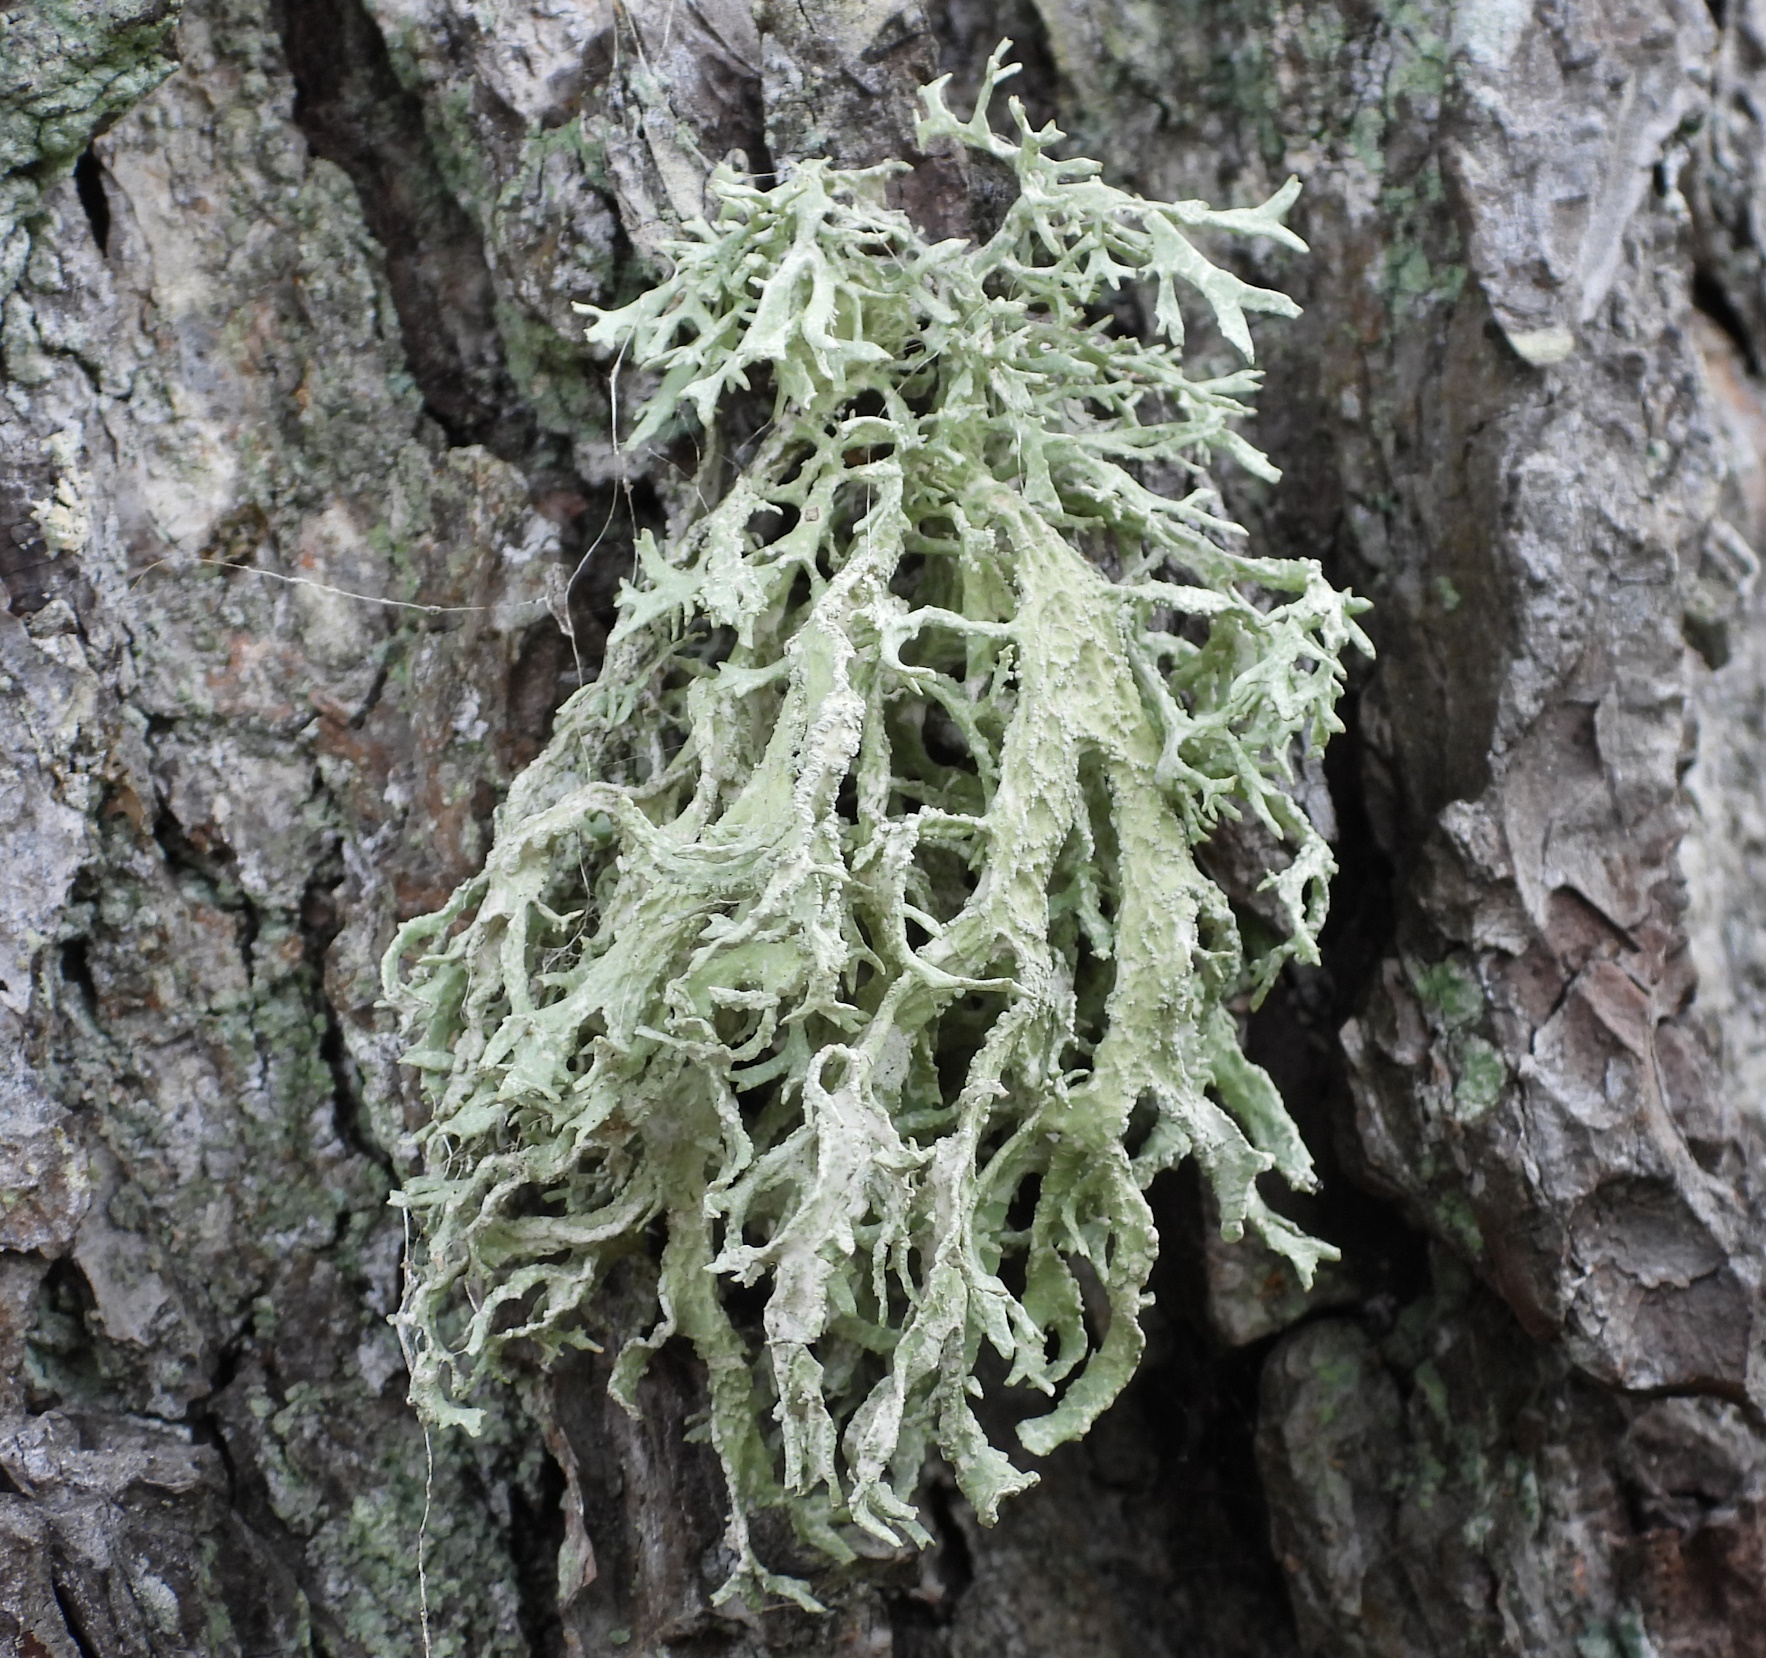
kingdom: Fungi
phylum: Ascomycota
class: Lecanoromycetes
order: Lecanorales
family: Parmeliaceae
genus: Evernia
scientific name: Evernia prunastri
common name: Oak moss
